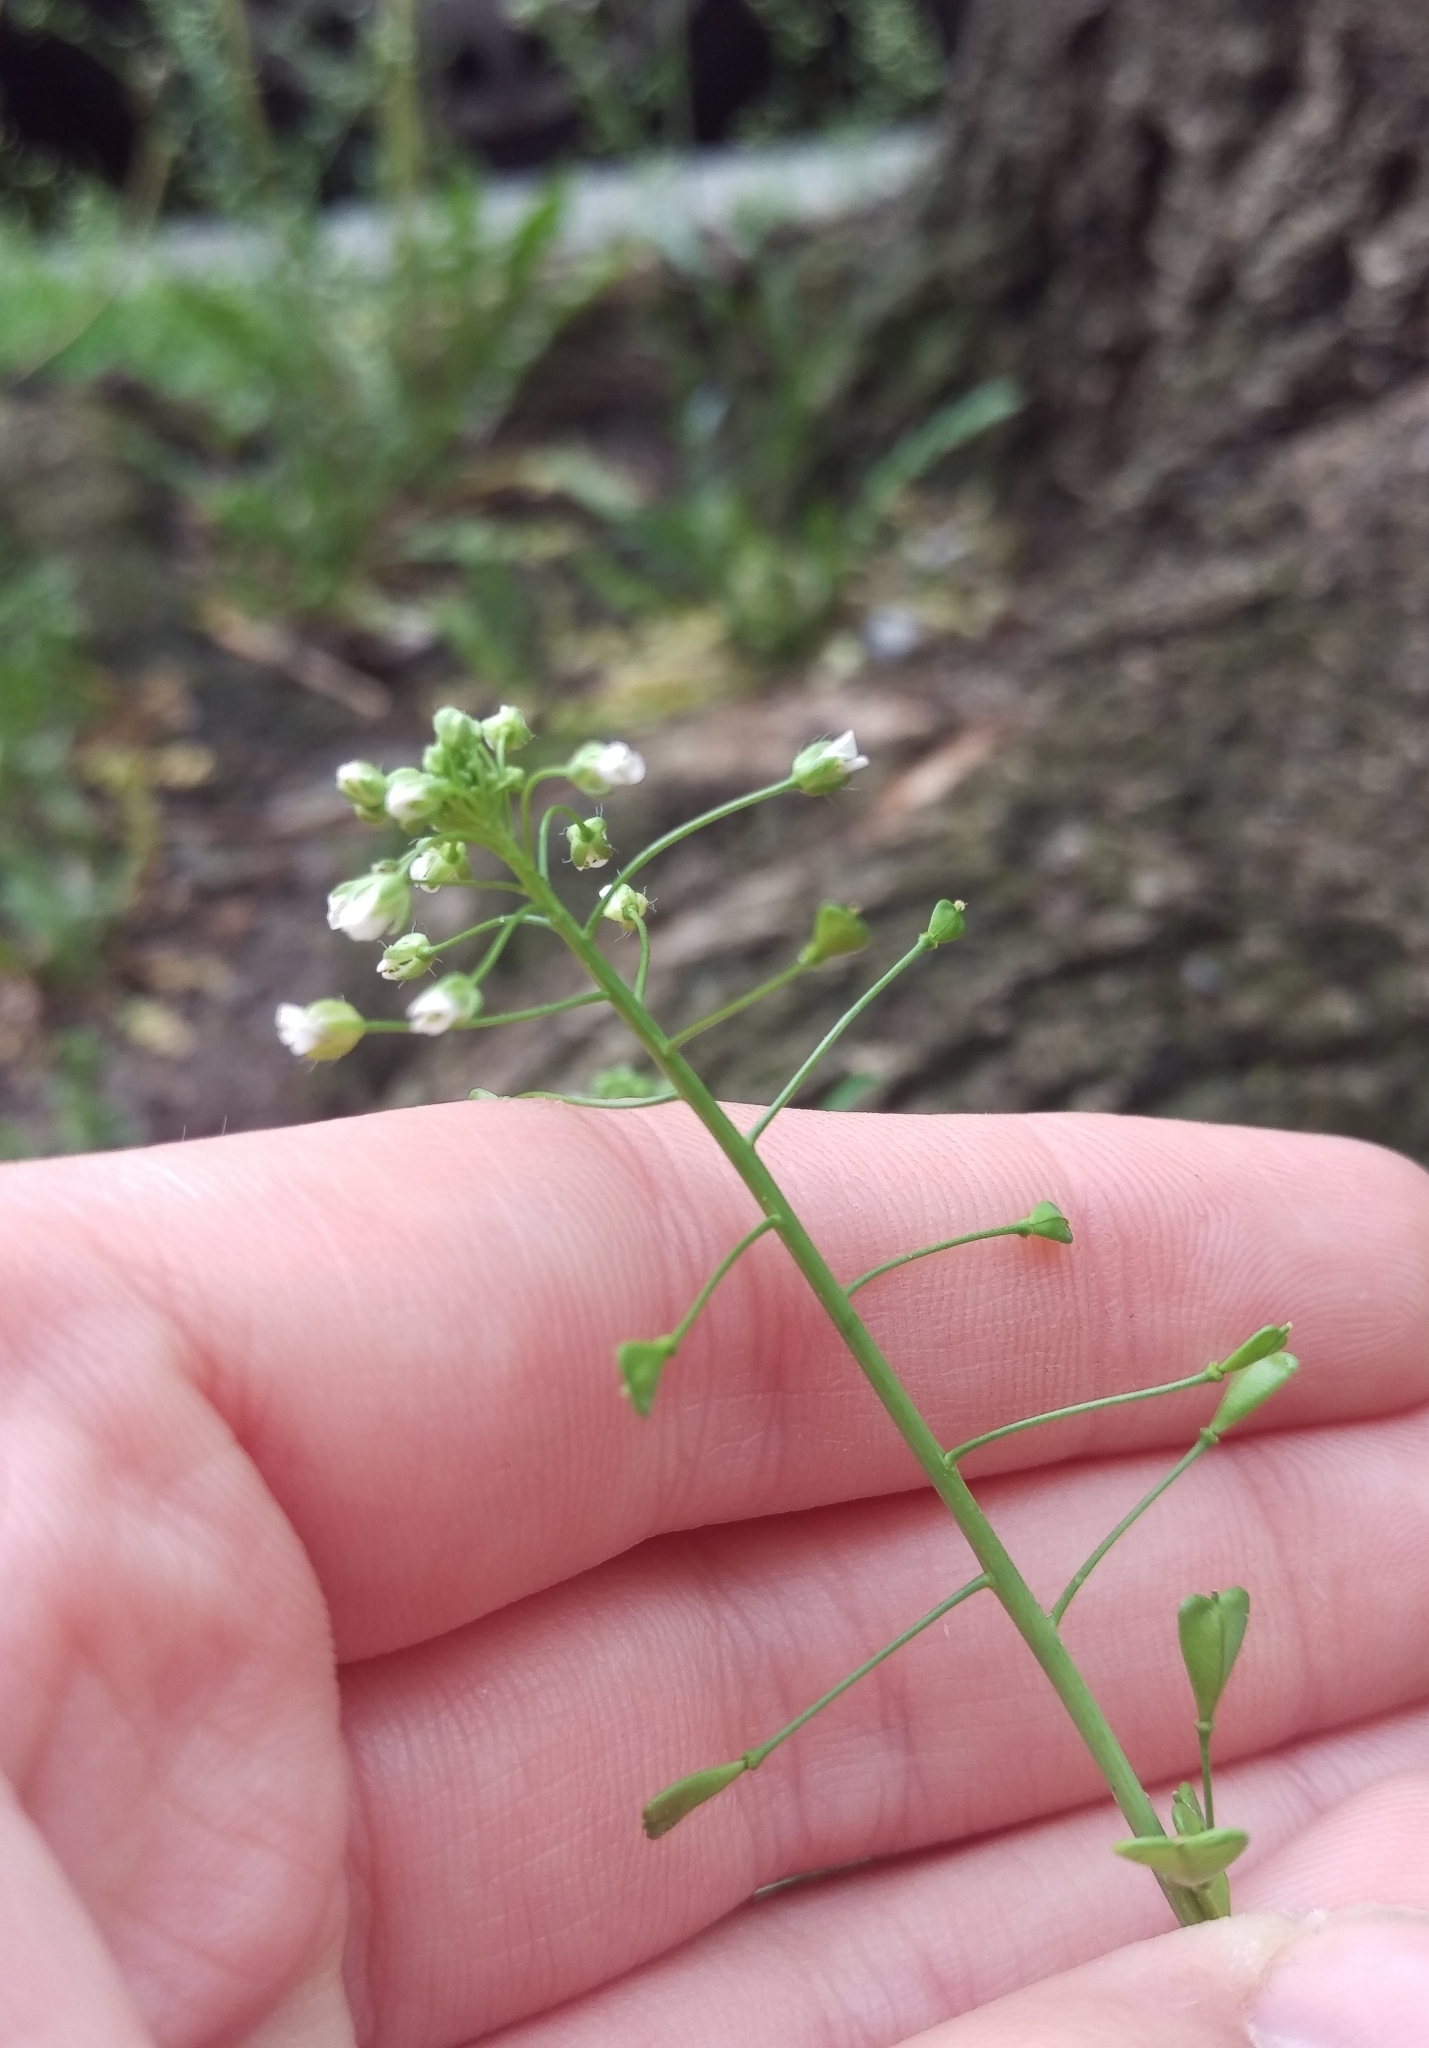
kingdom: Plantae
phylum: Tracheophyta
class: Magnoliopsida
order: Brassicales
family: Brassicaceae
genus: Capsella
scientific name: Capsella bursa-pastoris
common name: Shepherd's purse
